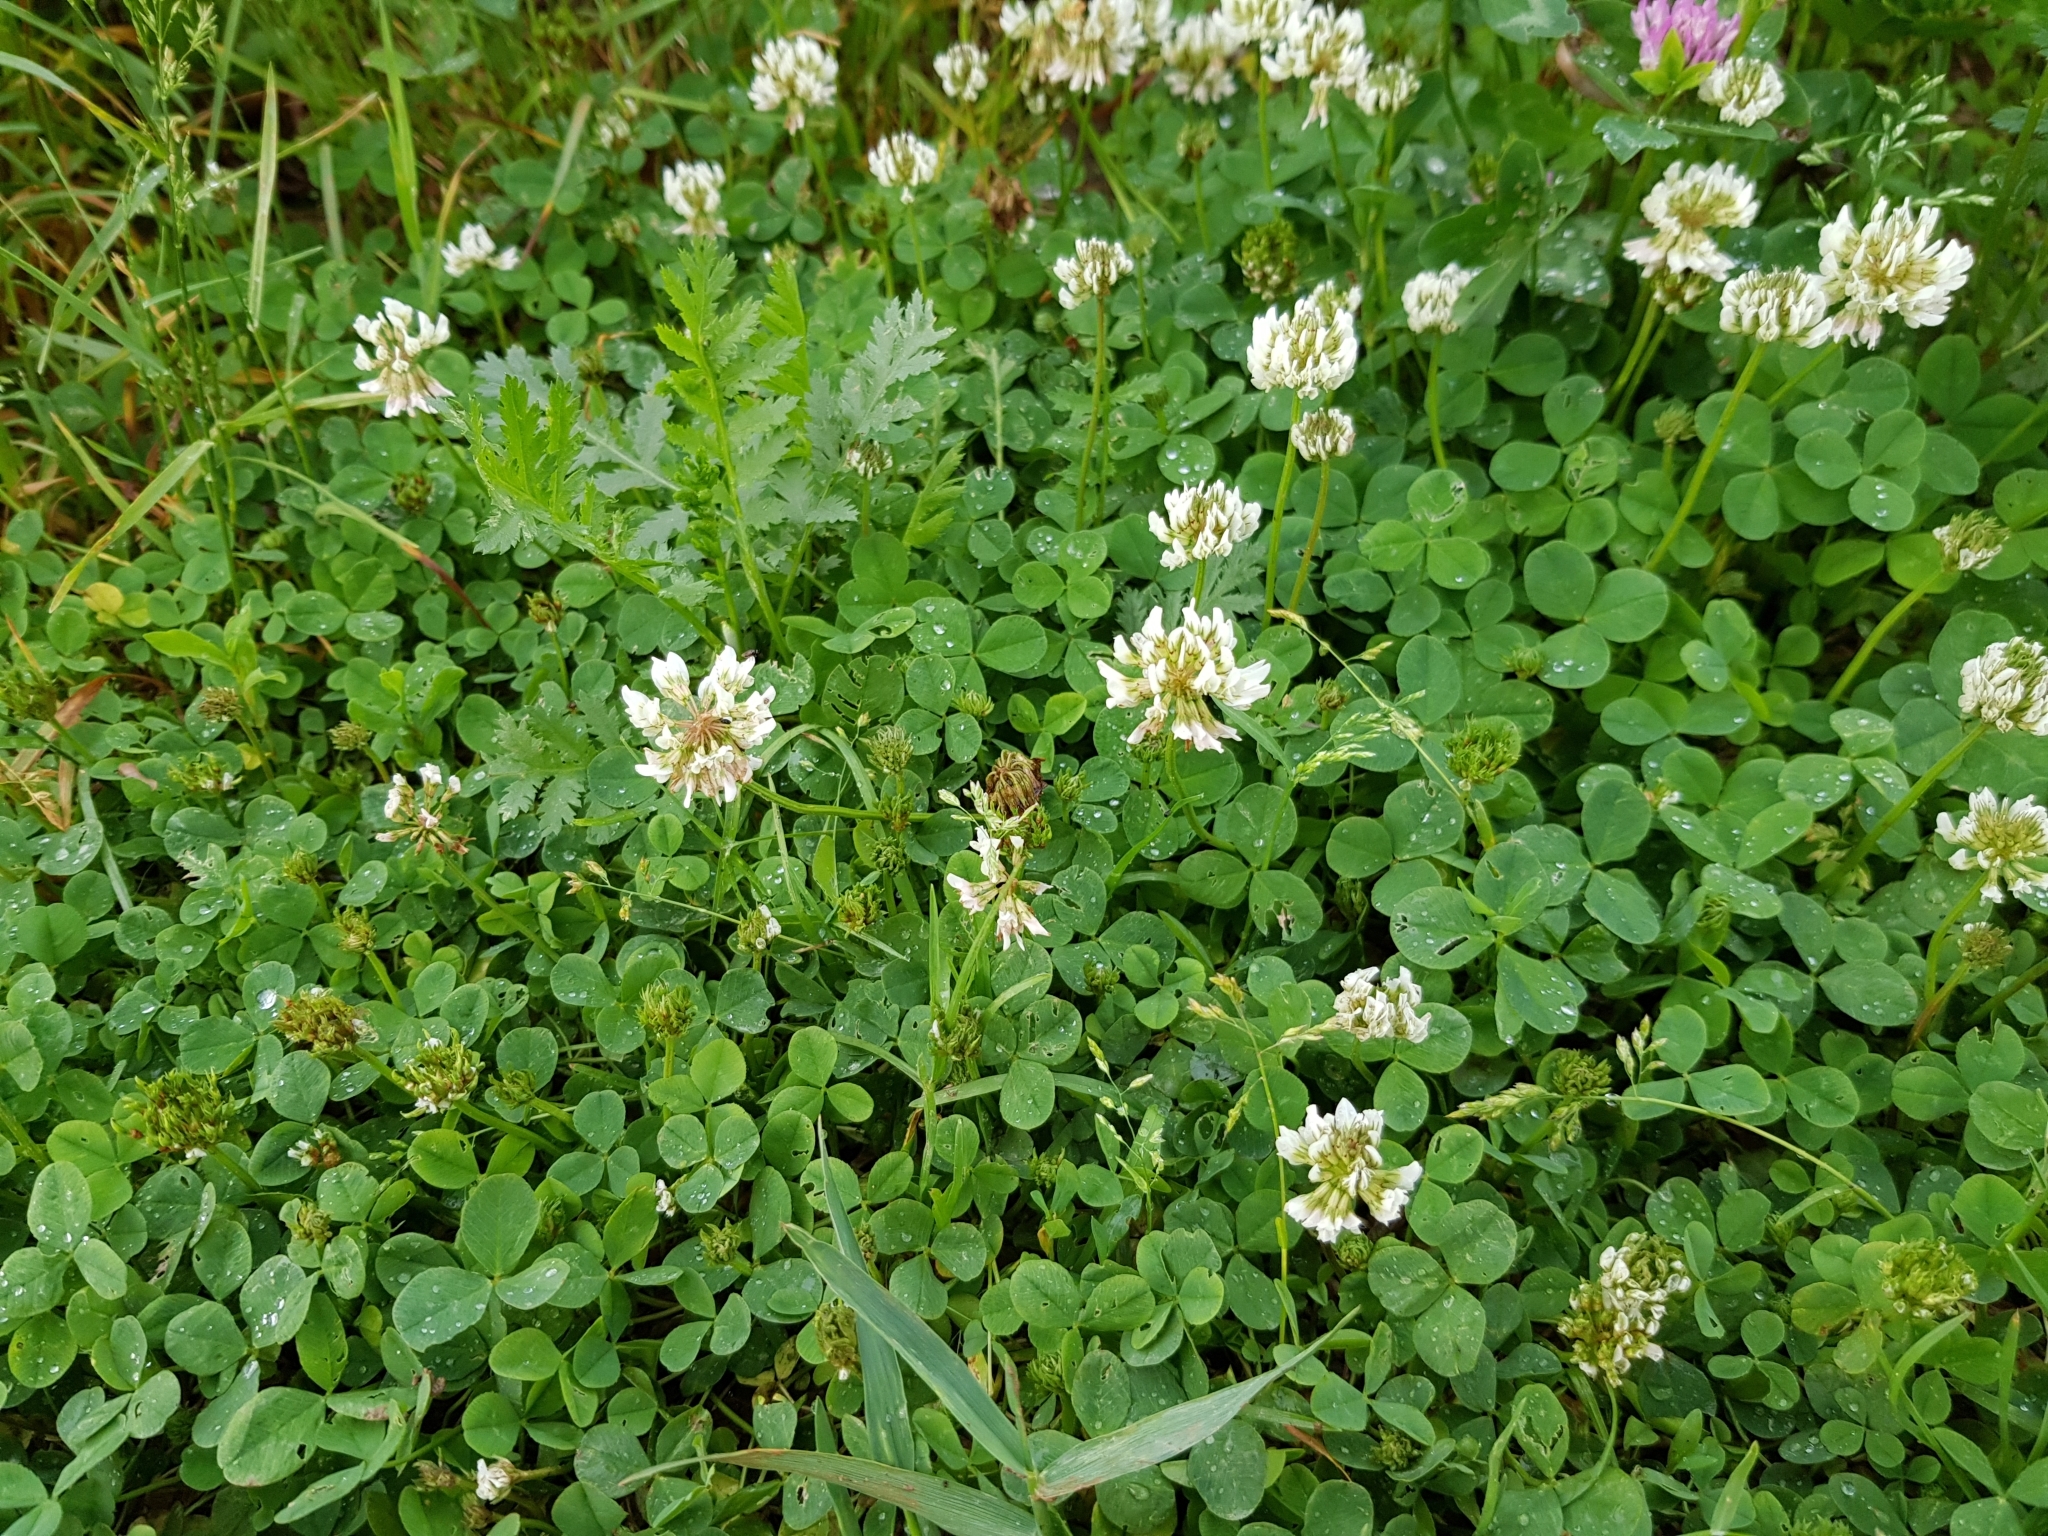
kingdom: Plantae
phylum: Tracheophyta
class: Magnoliopsida
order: Fabales
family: Fabaceae
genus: Trifolium
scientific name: Trifolium repens
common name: White clover
